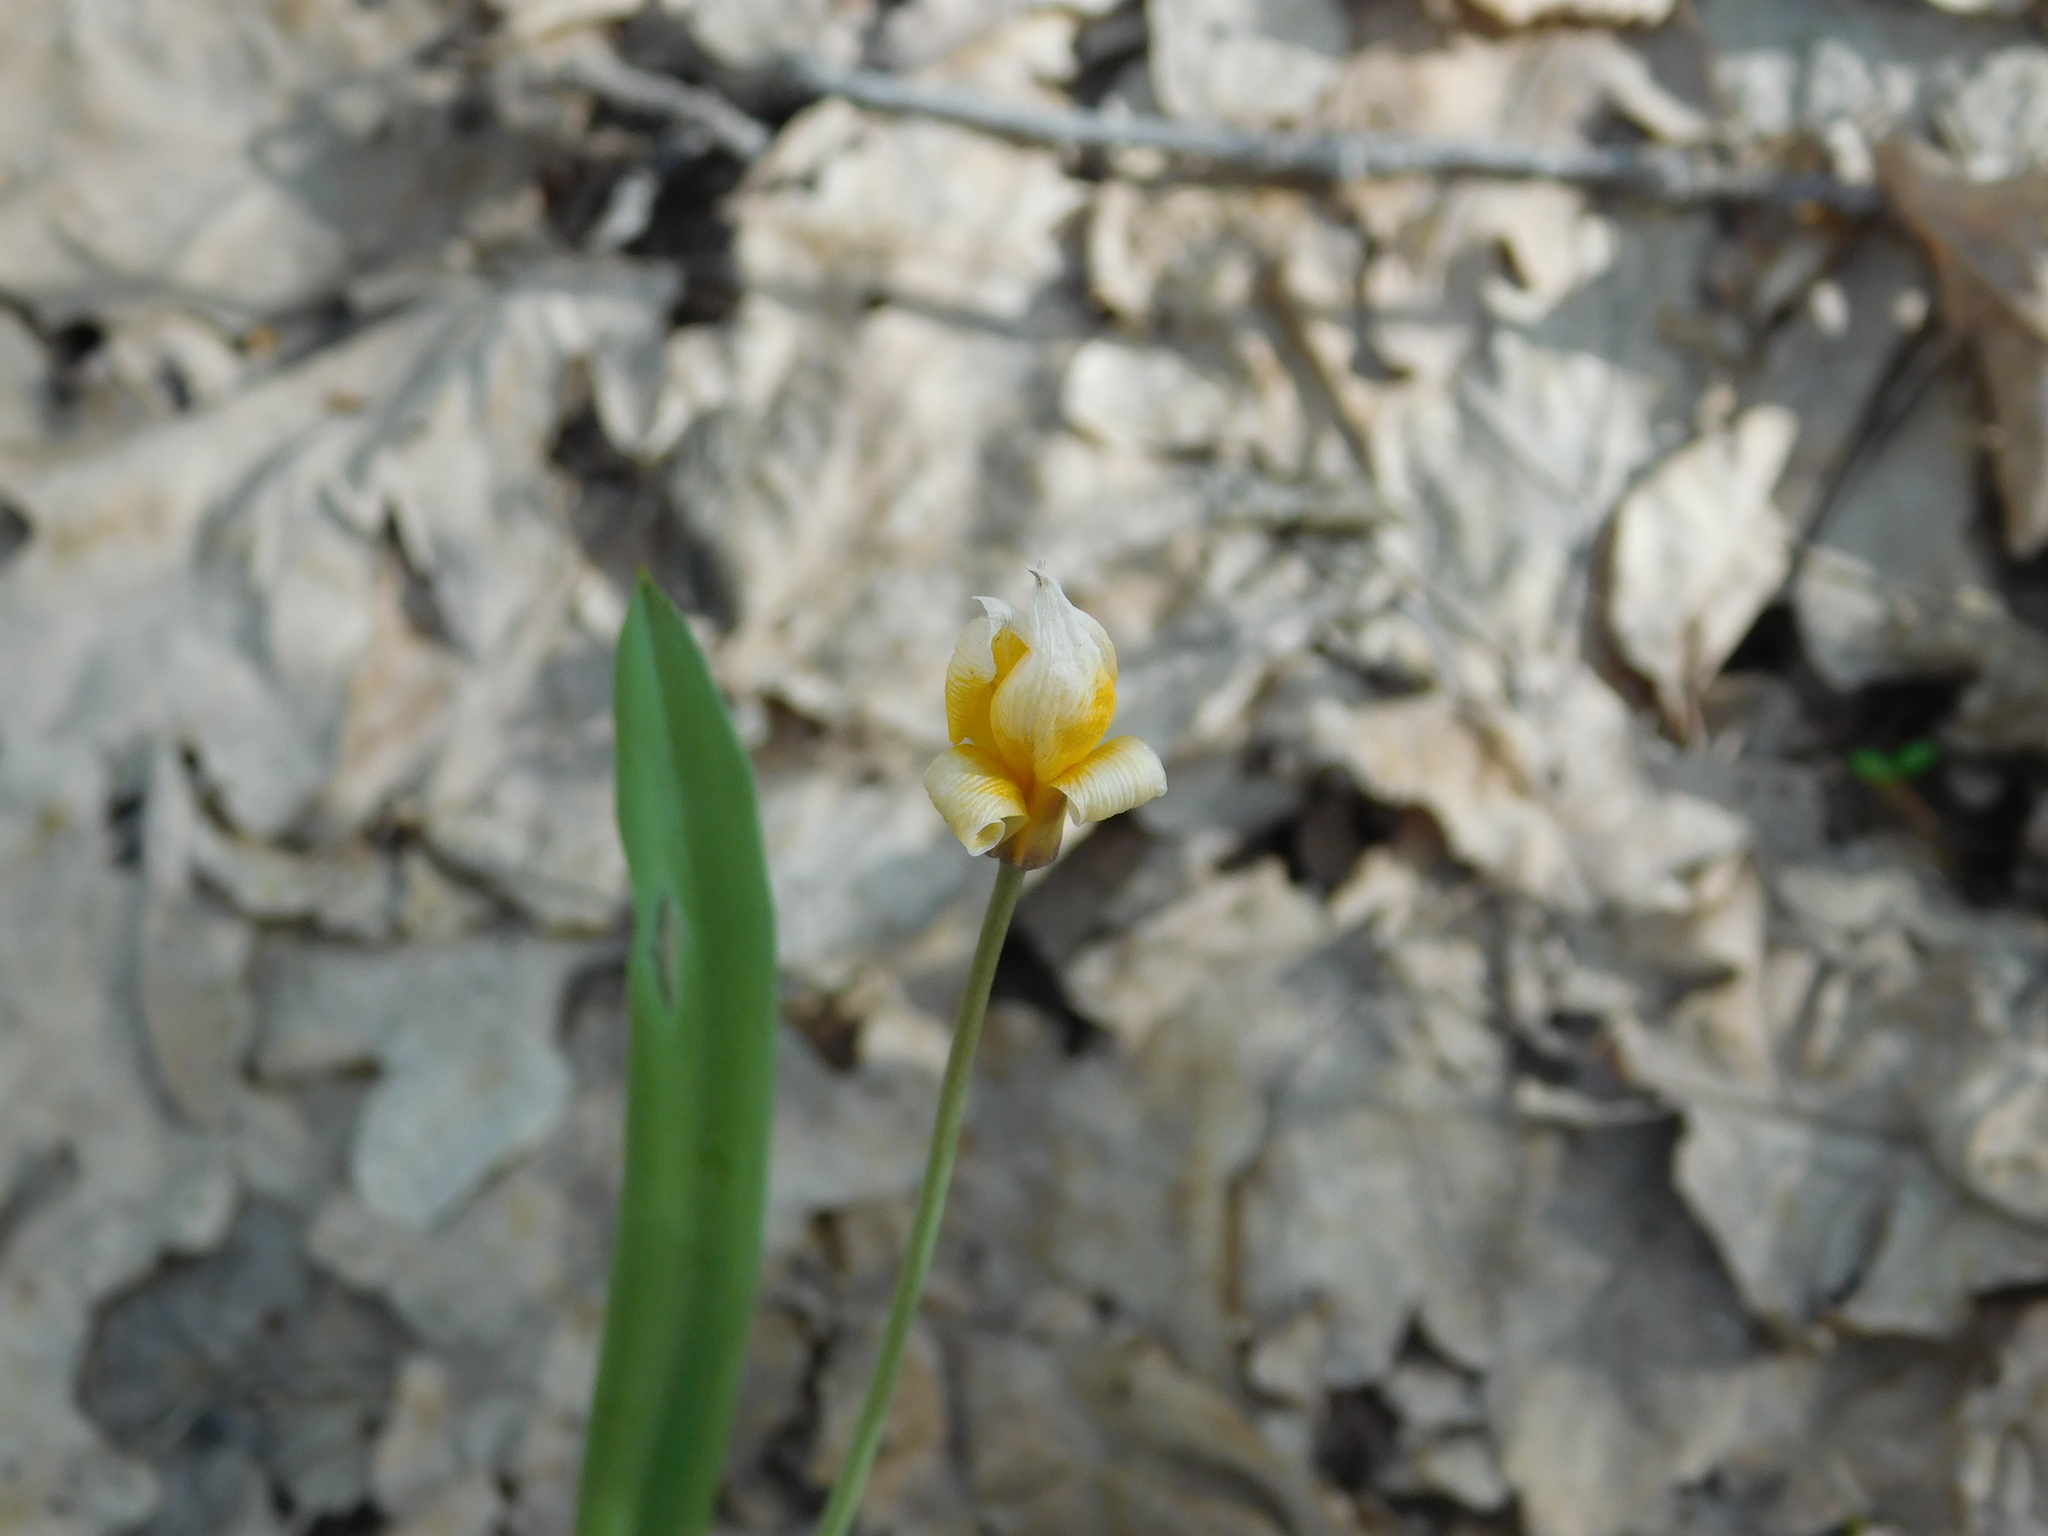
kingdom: Plantae
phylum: Tracheophyta
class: Liliopsida
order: Liliales
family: Liliaceae
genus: Tulipa
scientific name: Tulipa sylvestris
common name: Wild tulip
